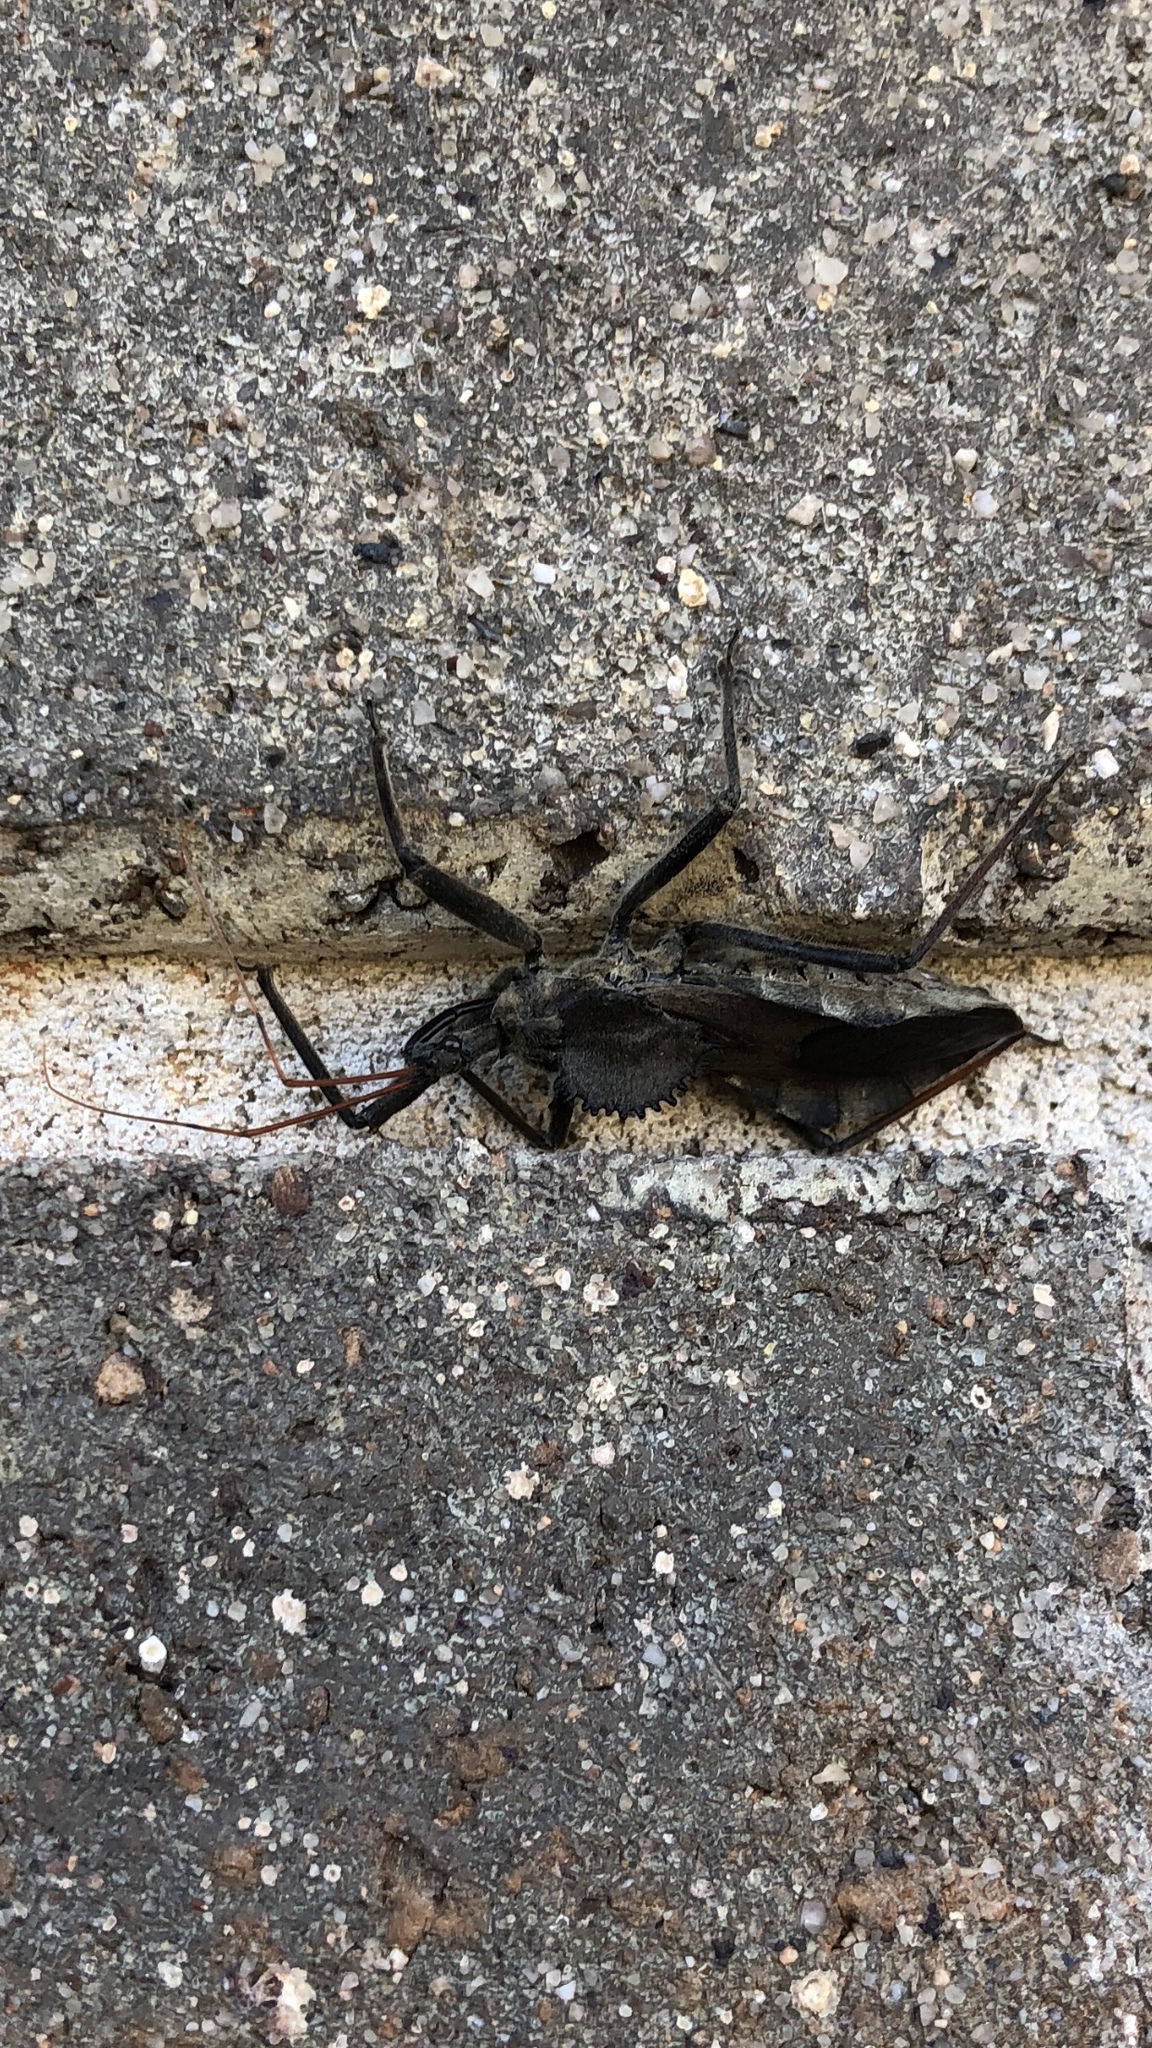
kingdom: Animalia
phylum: Arthropoda
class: Insecta
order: Hemiptera
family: Reduviidae
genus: Arilus
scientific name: Arilus cristatus
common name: North american wheel bug
